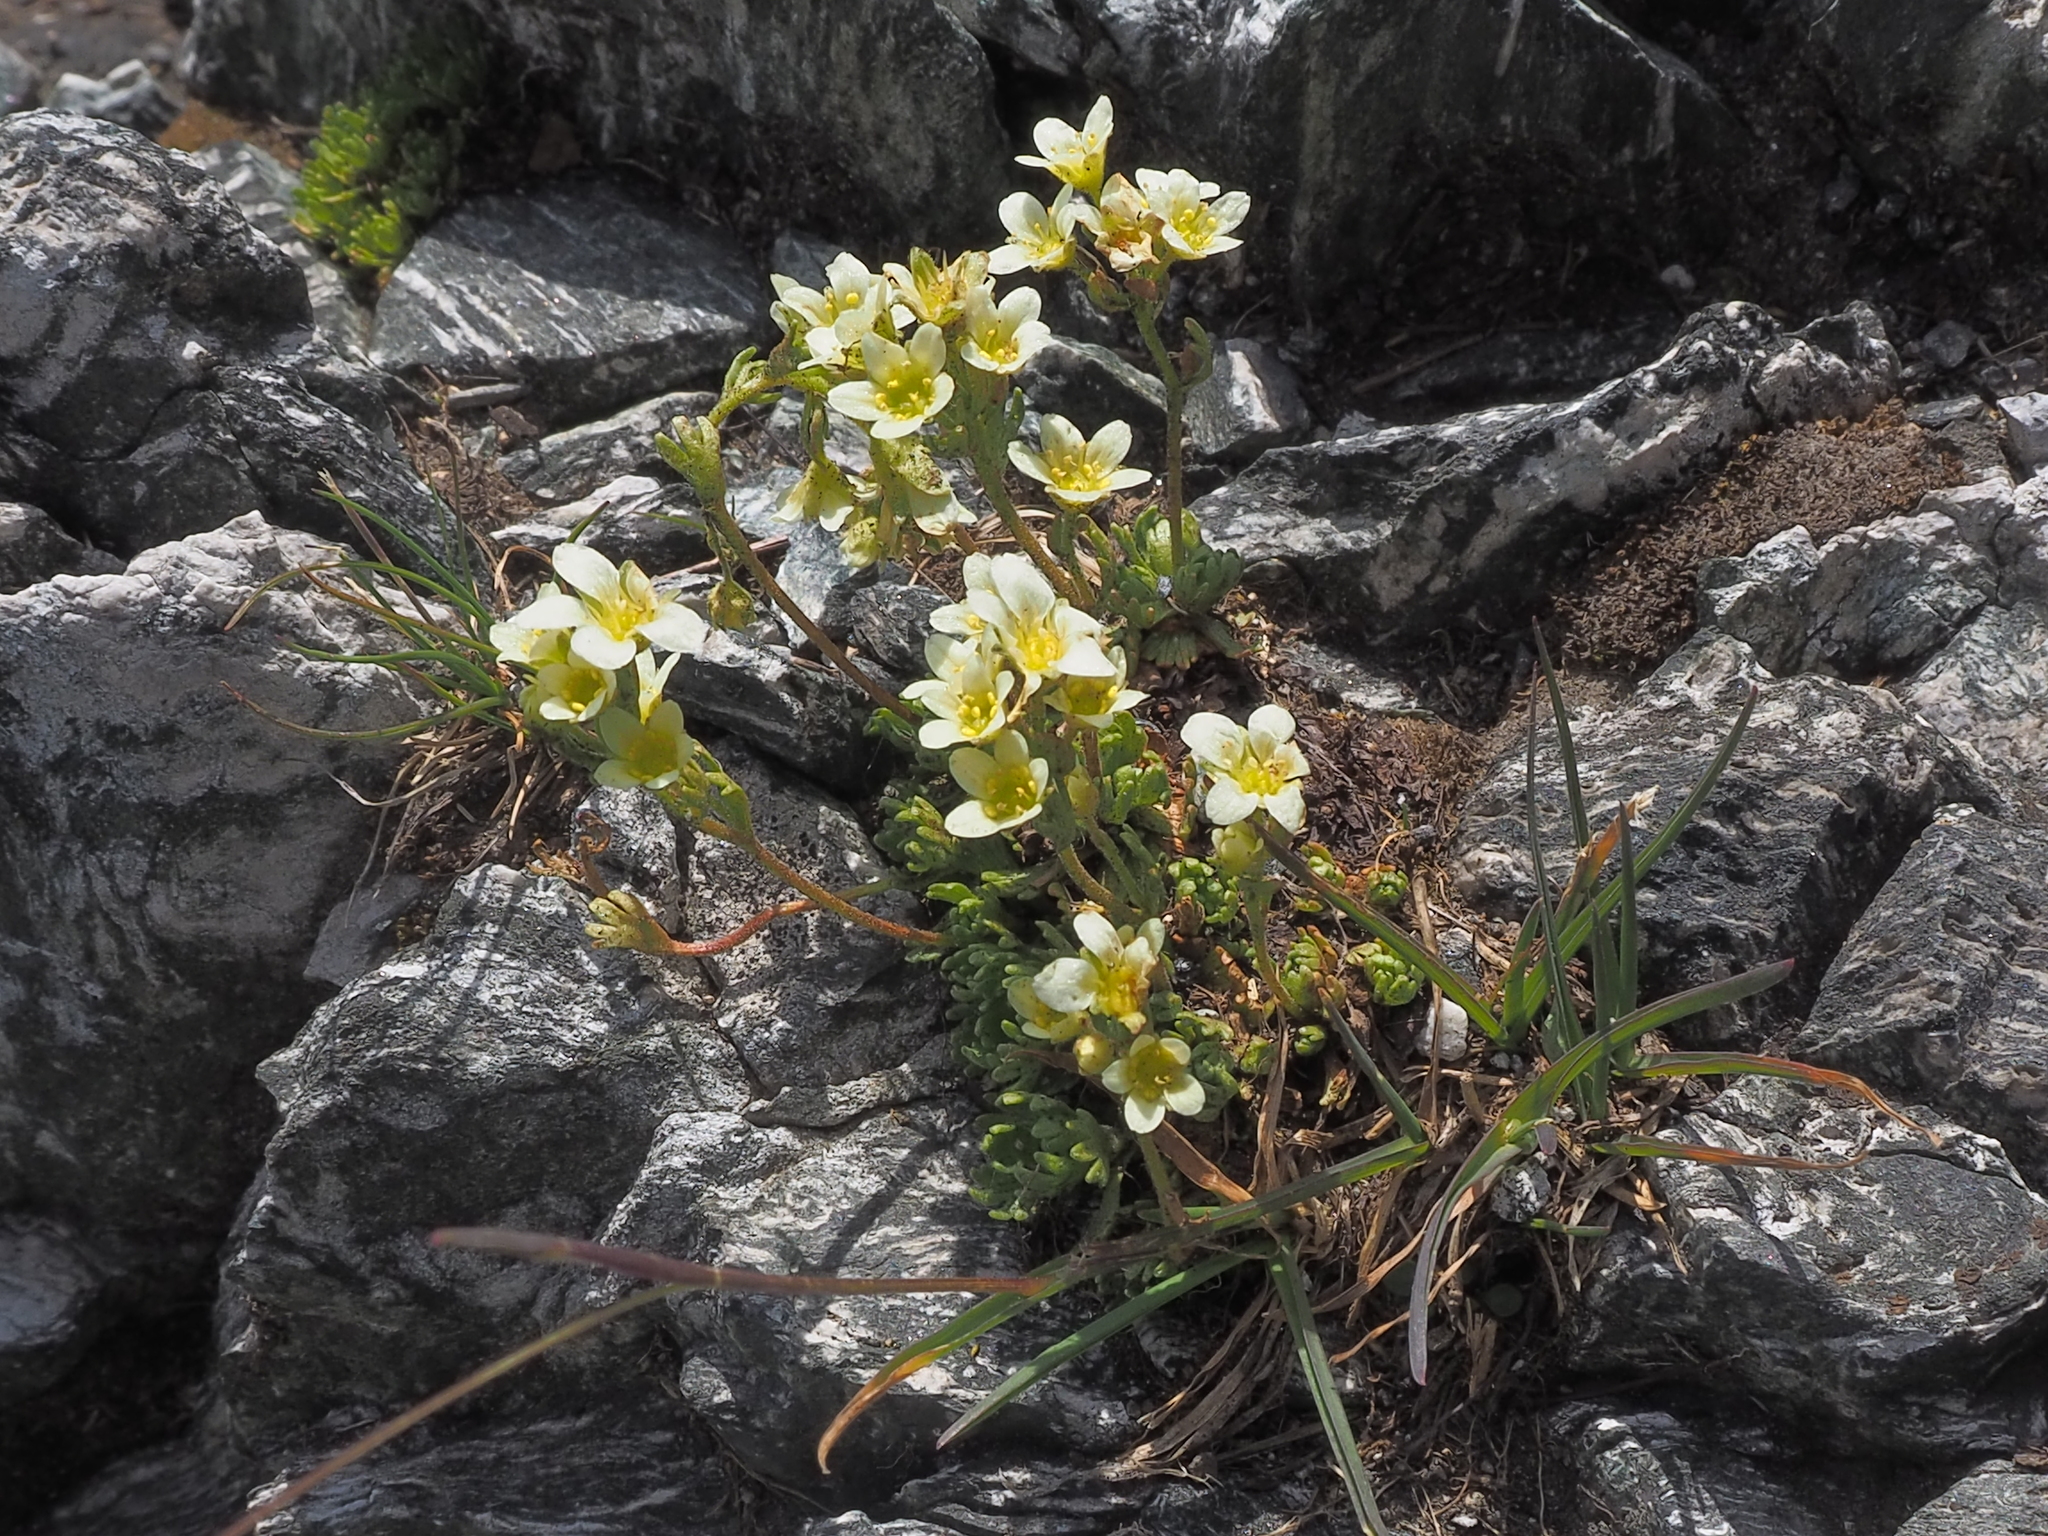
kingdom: Plantae
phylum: Tracheophyta
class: Magnoliopsida
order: Saxifragales
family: Saxifragaceae
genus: Saxifraga
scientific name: Saxifraga exarata
